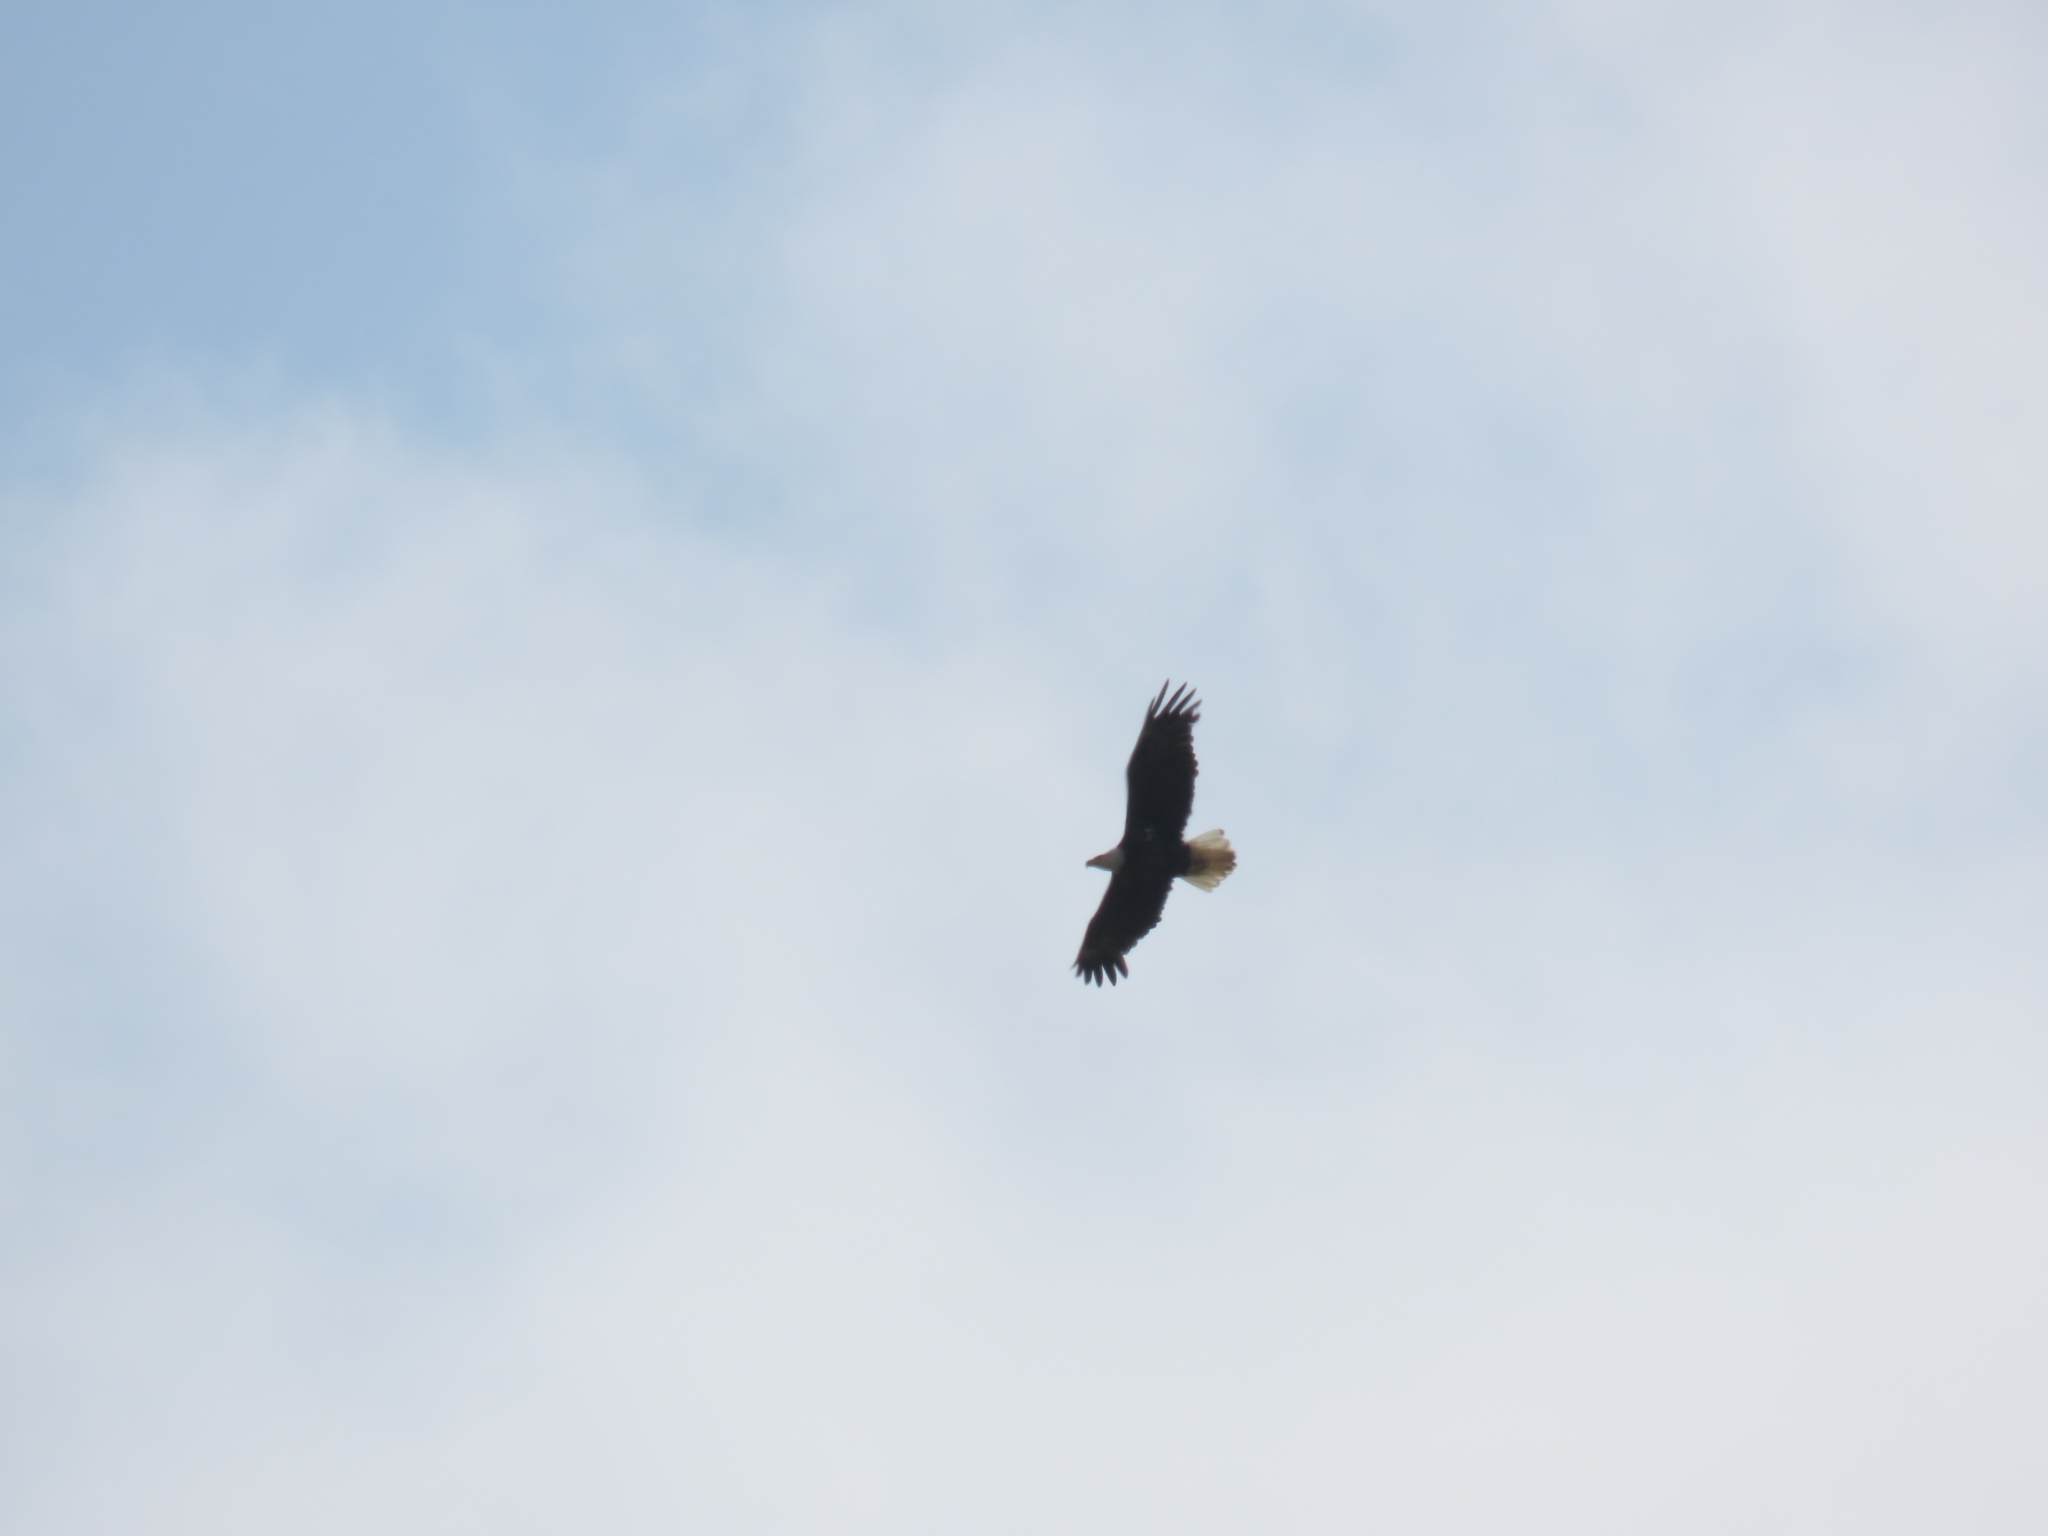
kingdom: Animalia
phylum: Chordata
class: Aves
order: Accipitriformes
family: Accipitridae
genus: Haliaeetus
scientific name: Haliaeetus leucocephalus
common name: Bald eagle
